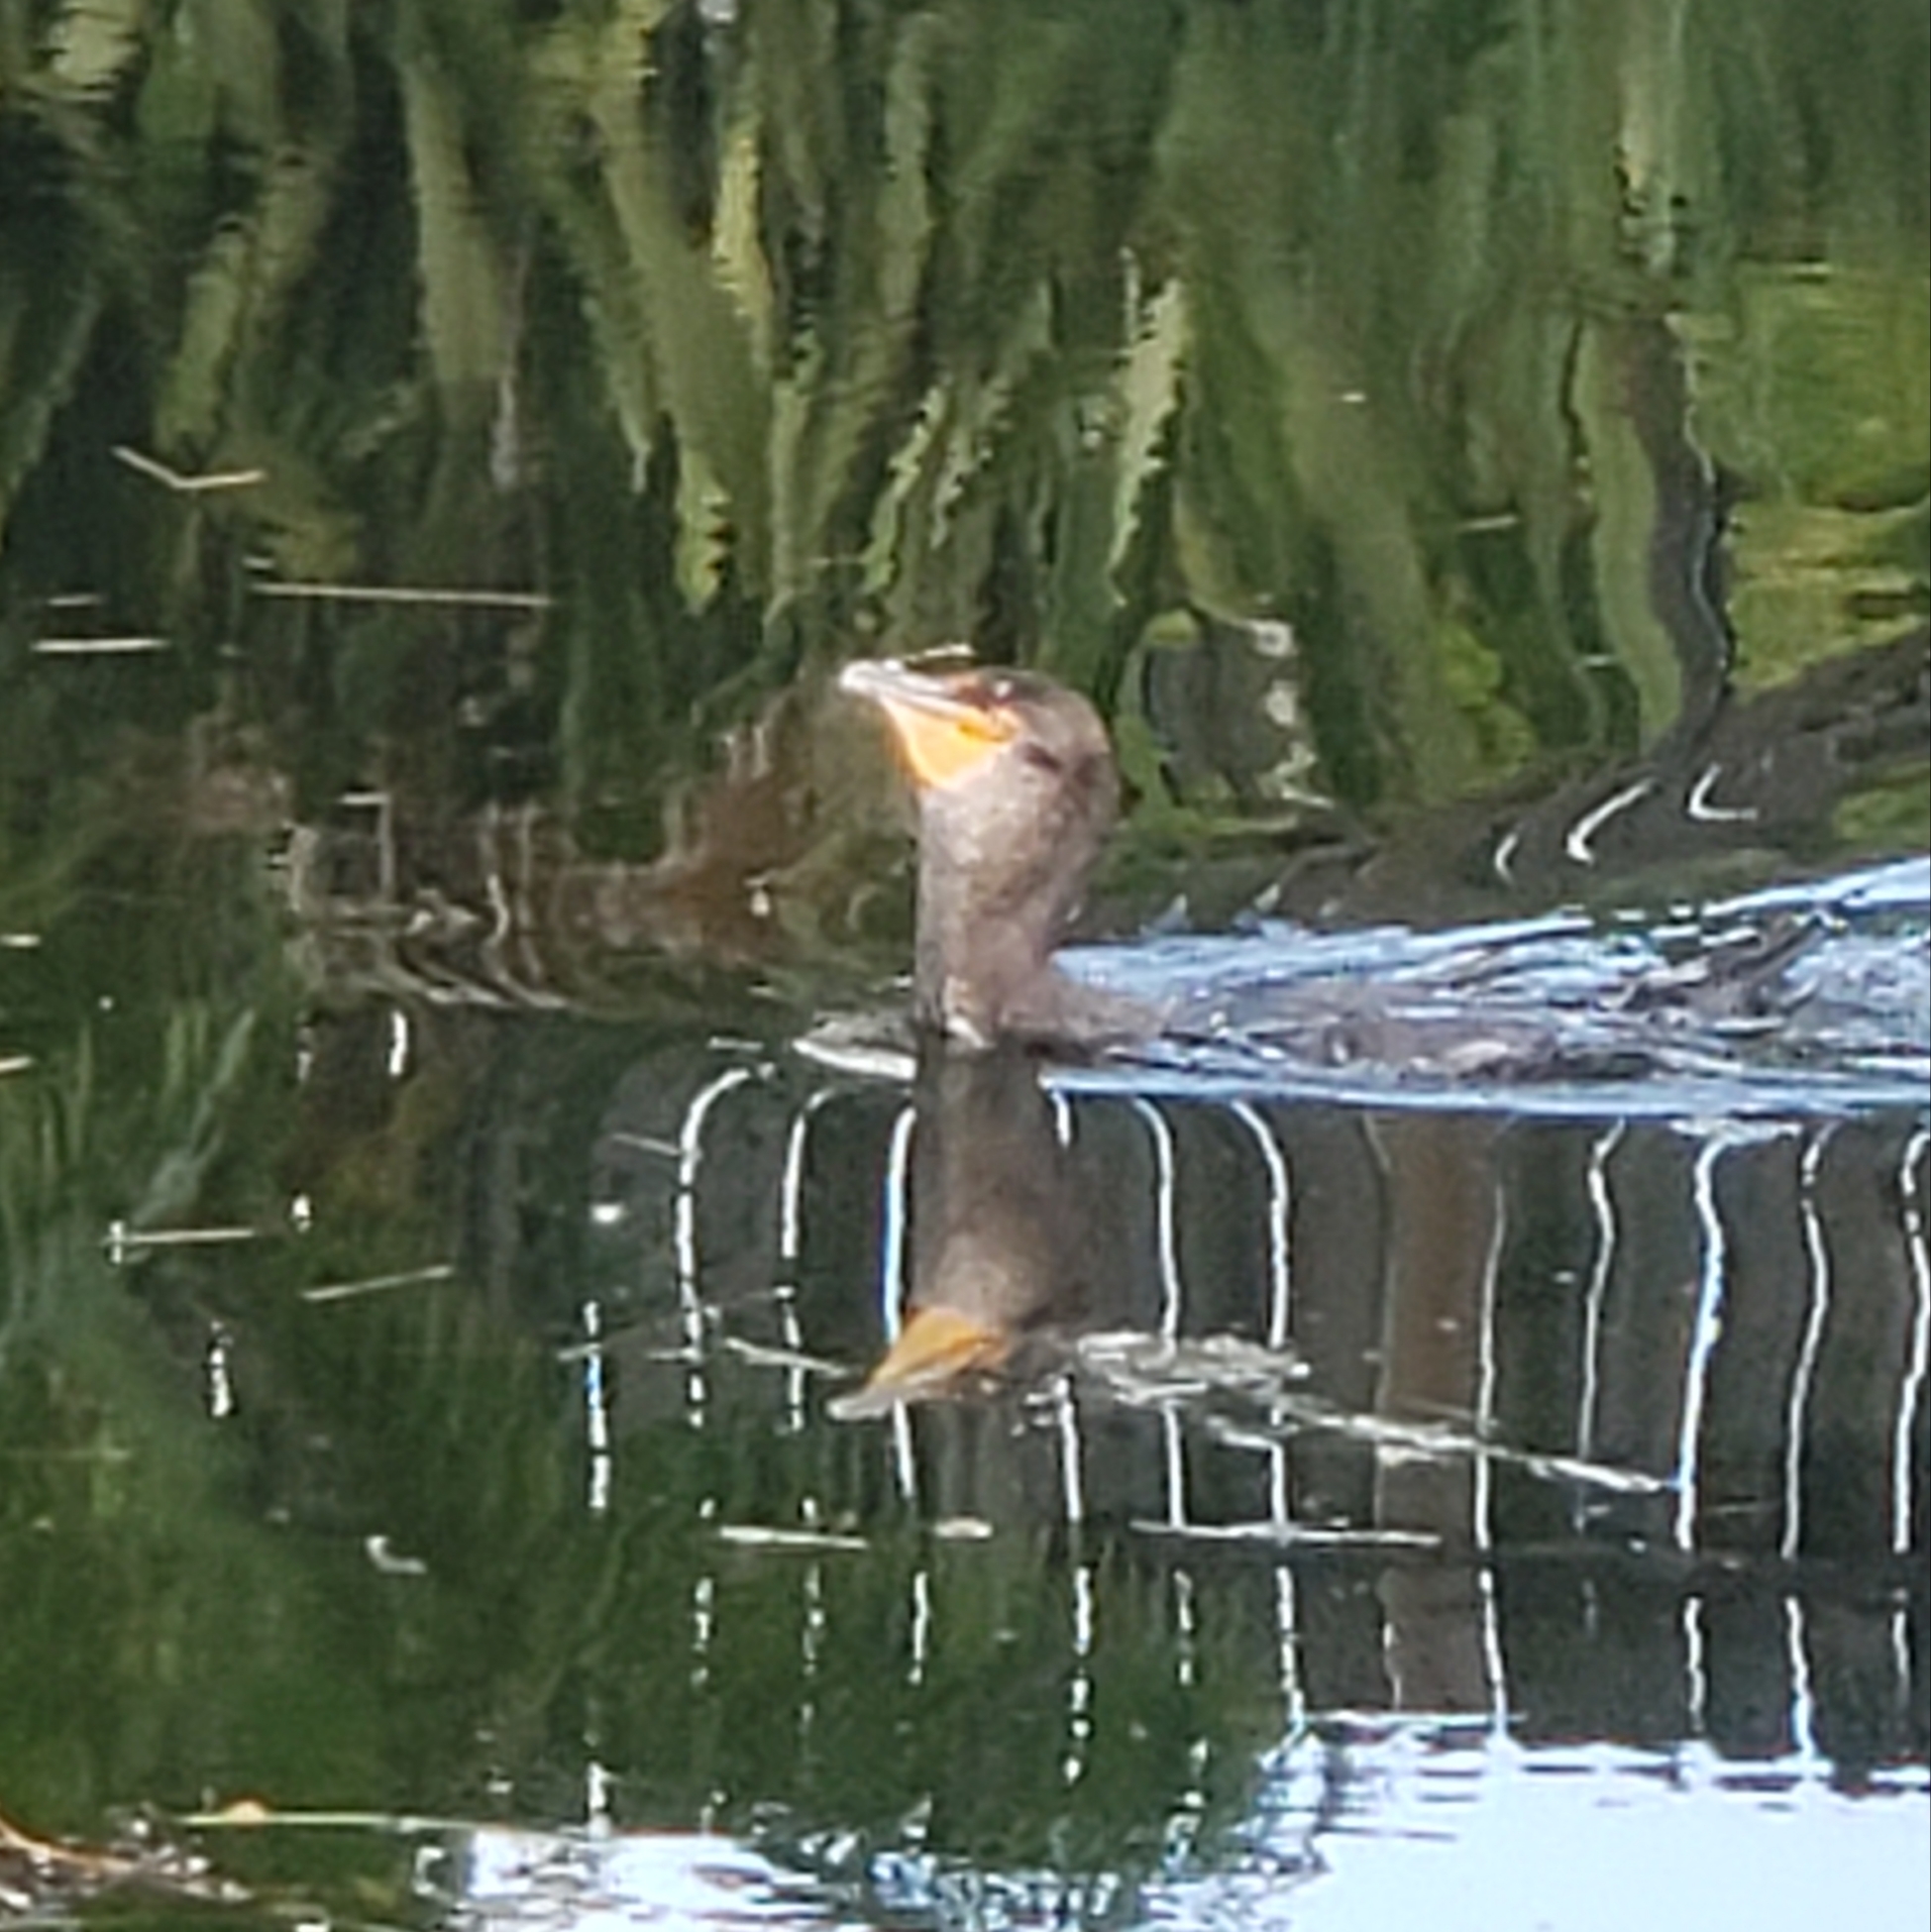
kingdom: Animalia
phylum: Chordata
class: Aves
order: Suliformes
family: Phalacrocoracidae
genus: Phalacrocorax
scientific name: Phalacrocorax auritus
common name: Double-crested cormorant
